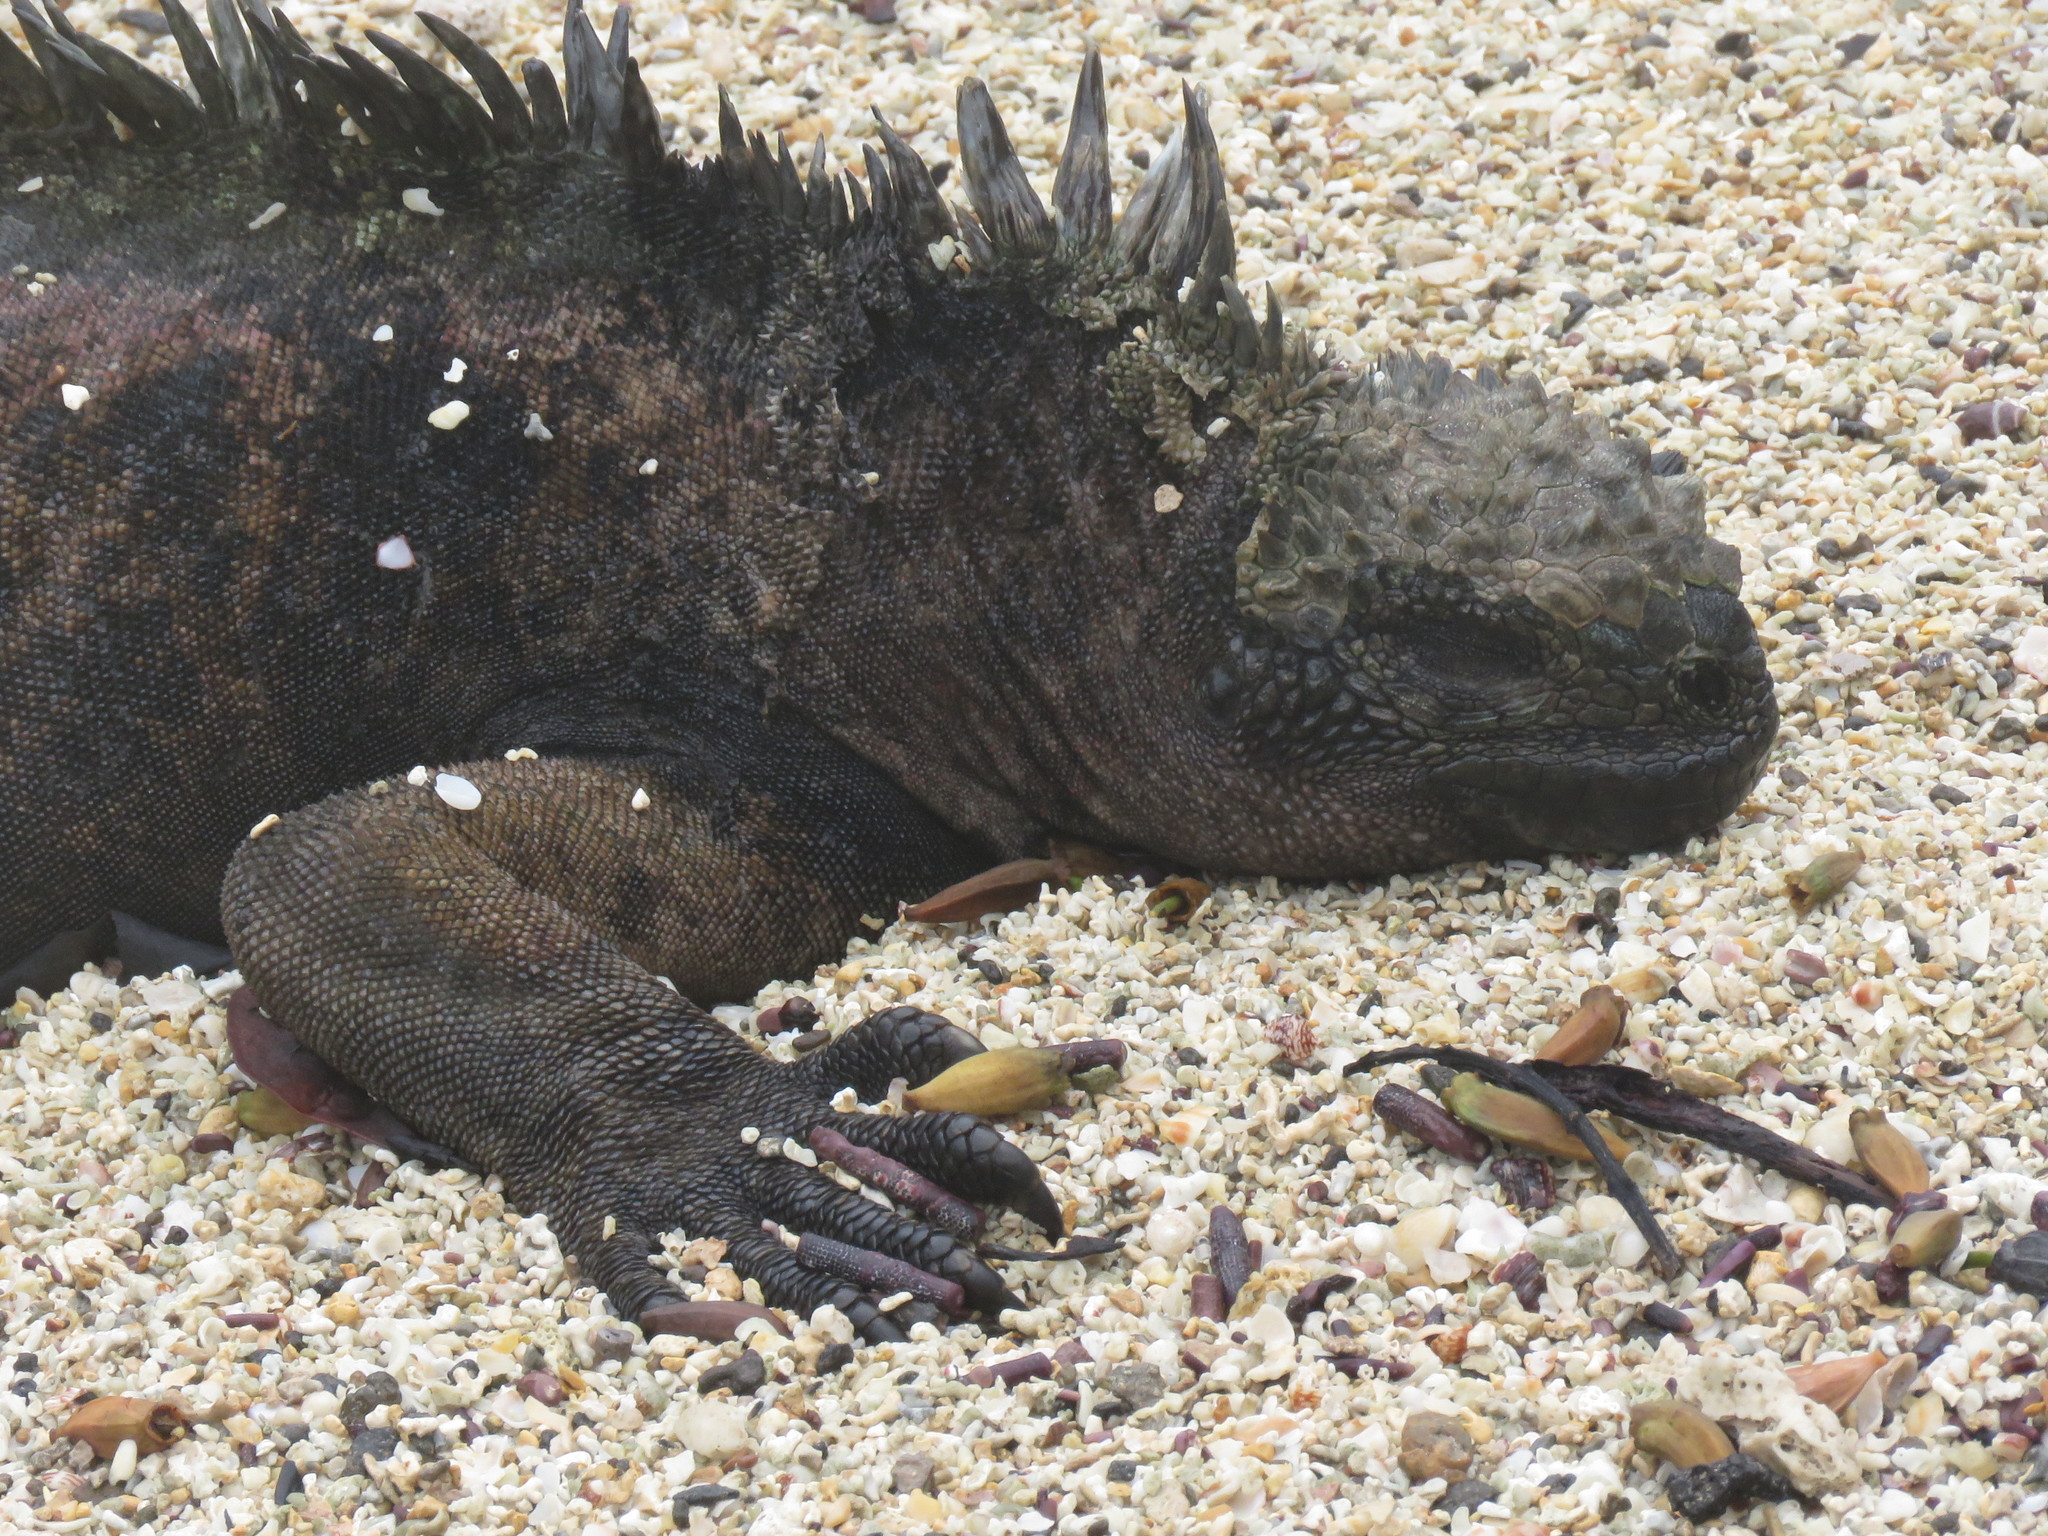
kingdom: Animalia
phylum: Chordata
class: Squamata
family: Iguanidae
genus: Amblyrhynchus
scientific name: Amblyrhynchus cristatus
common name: Marine iguana
